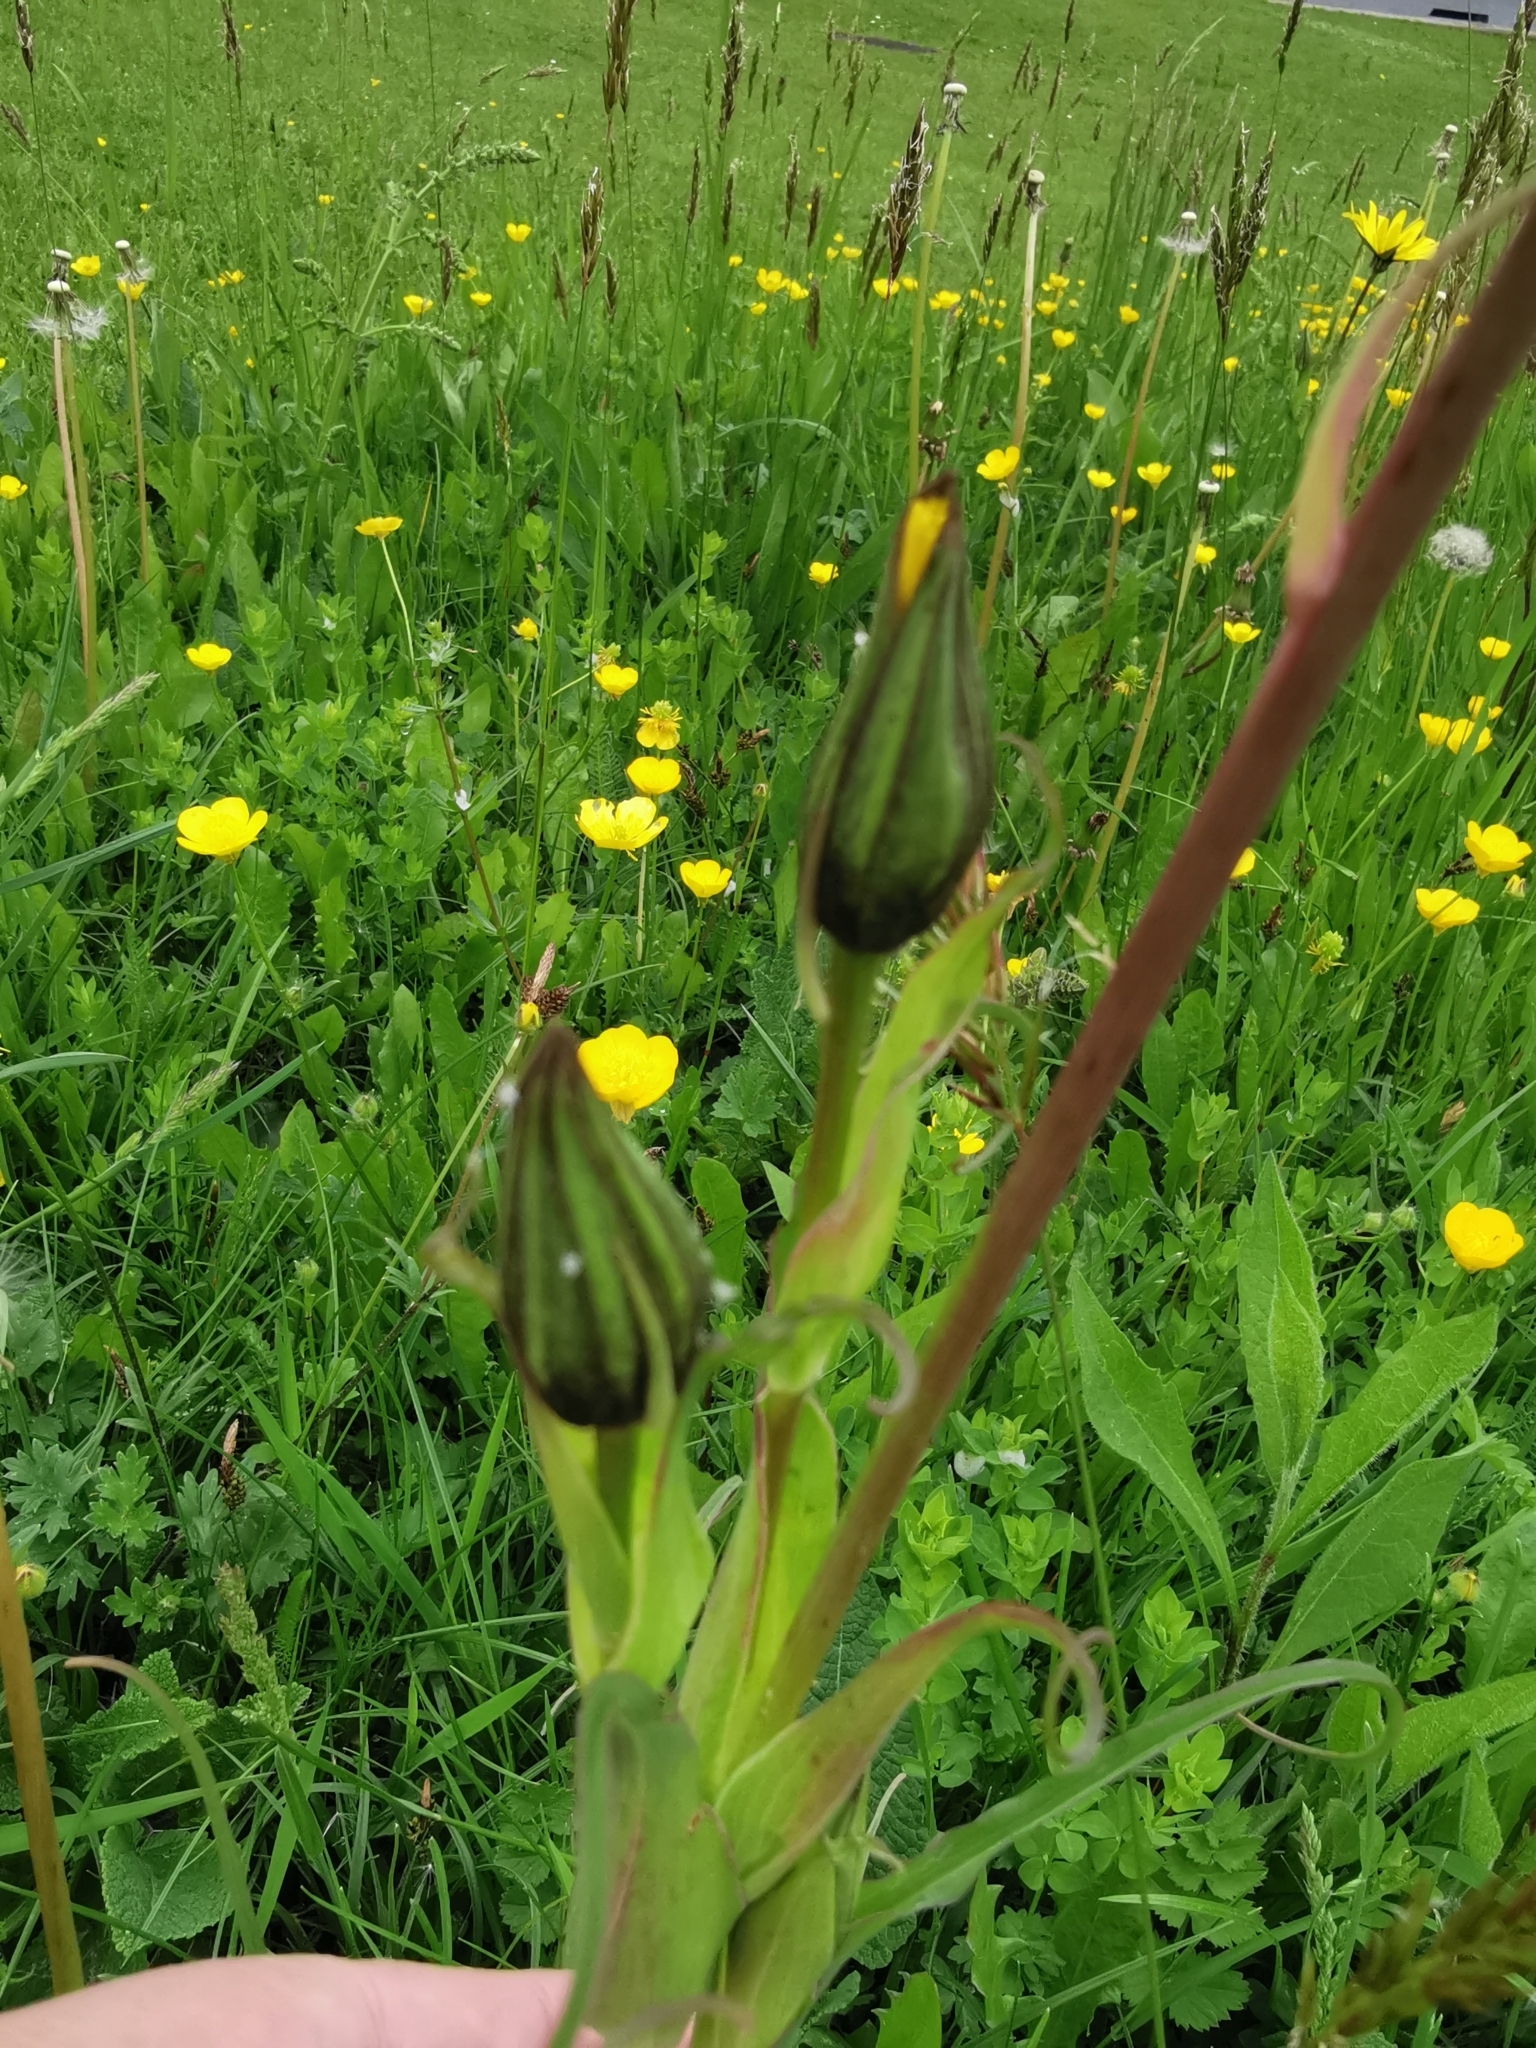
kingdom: Plantae
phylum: Tracheophyta
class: Magnoliopsida
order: Asterales
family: Asteraceae
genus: Tragopogon
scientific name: Tragopogon orientalis
